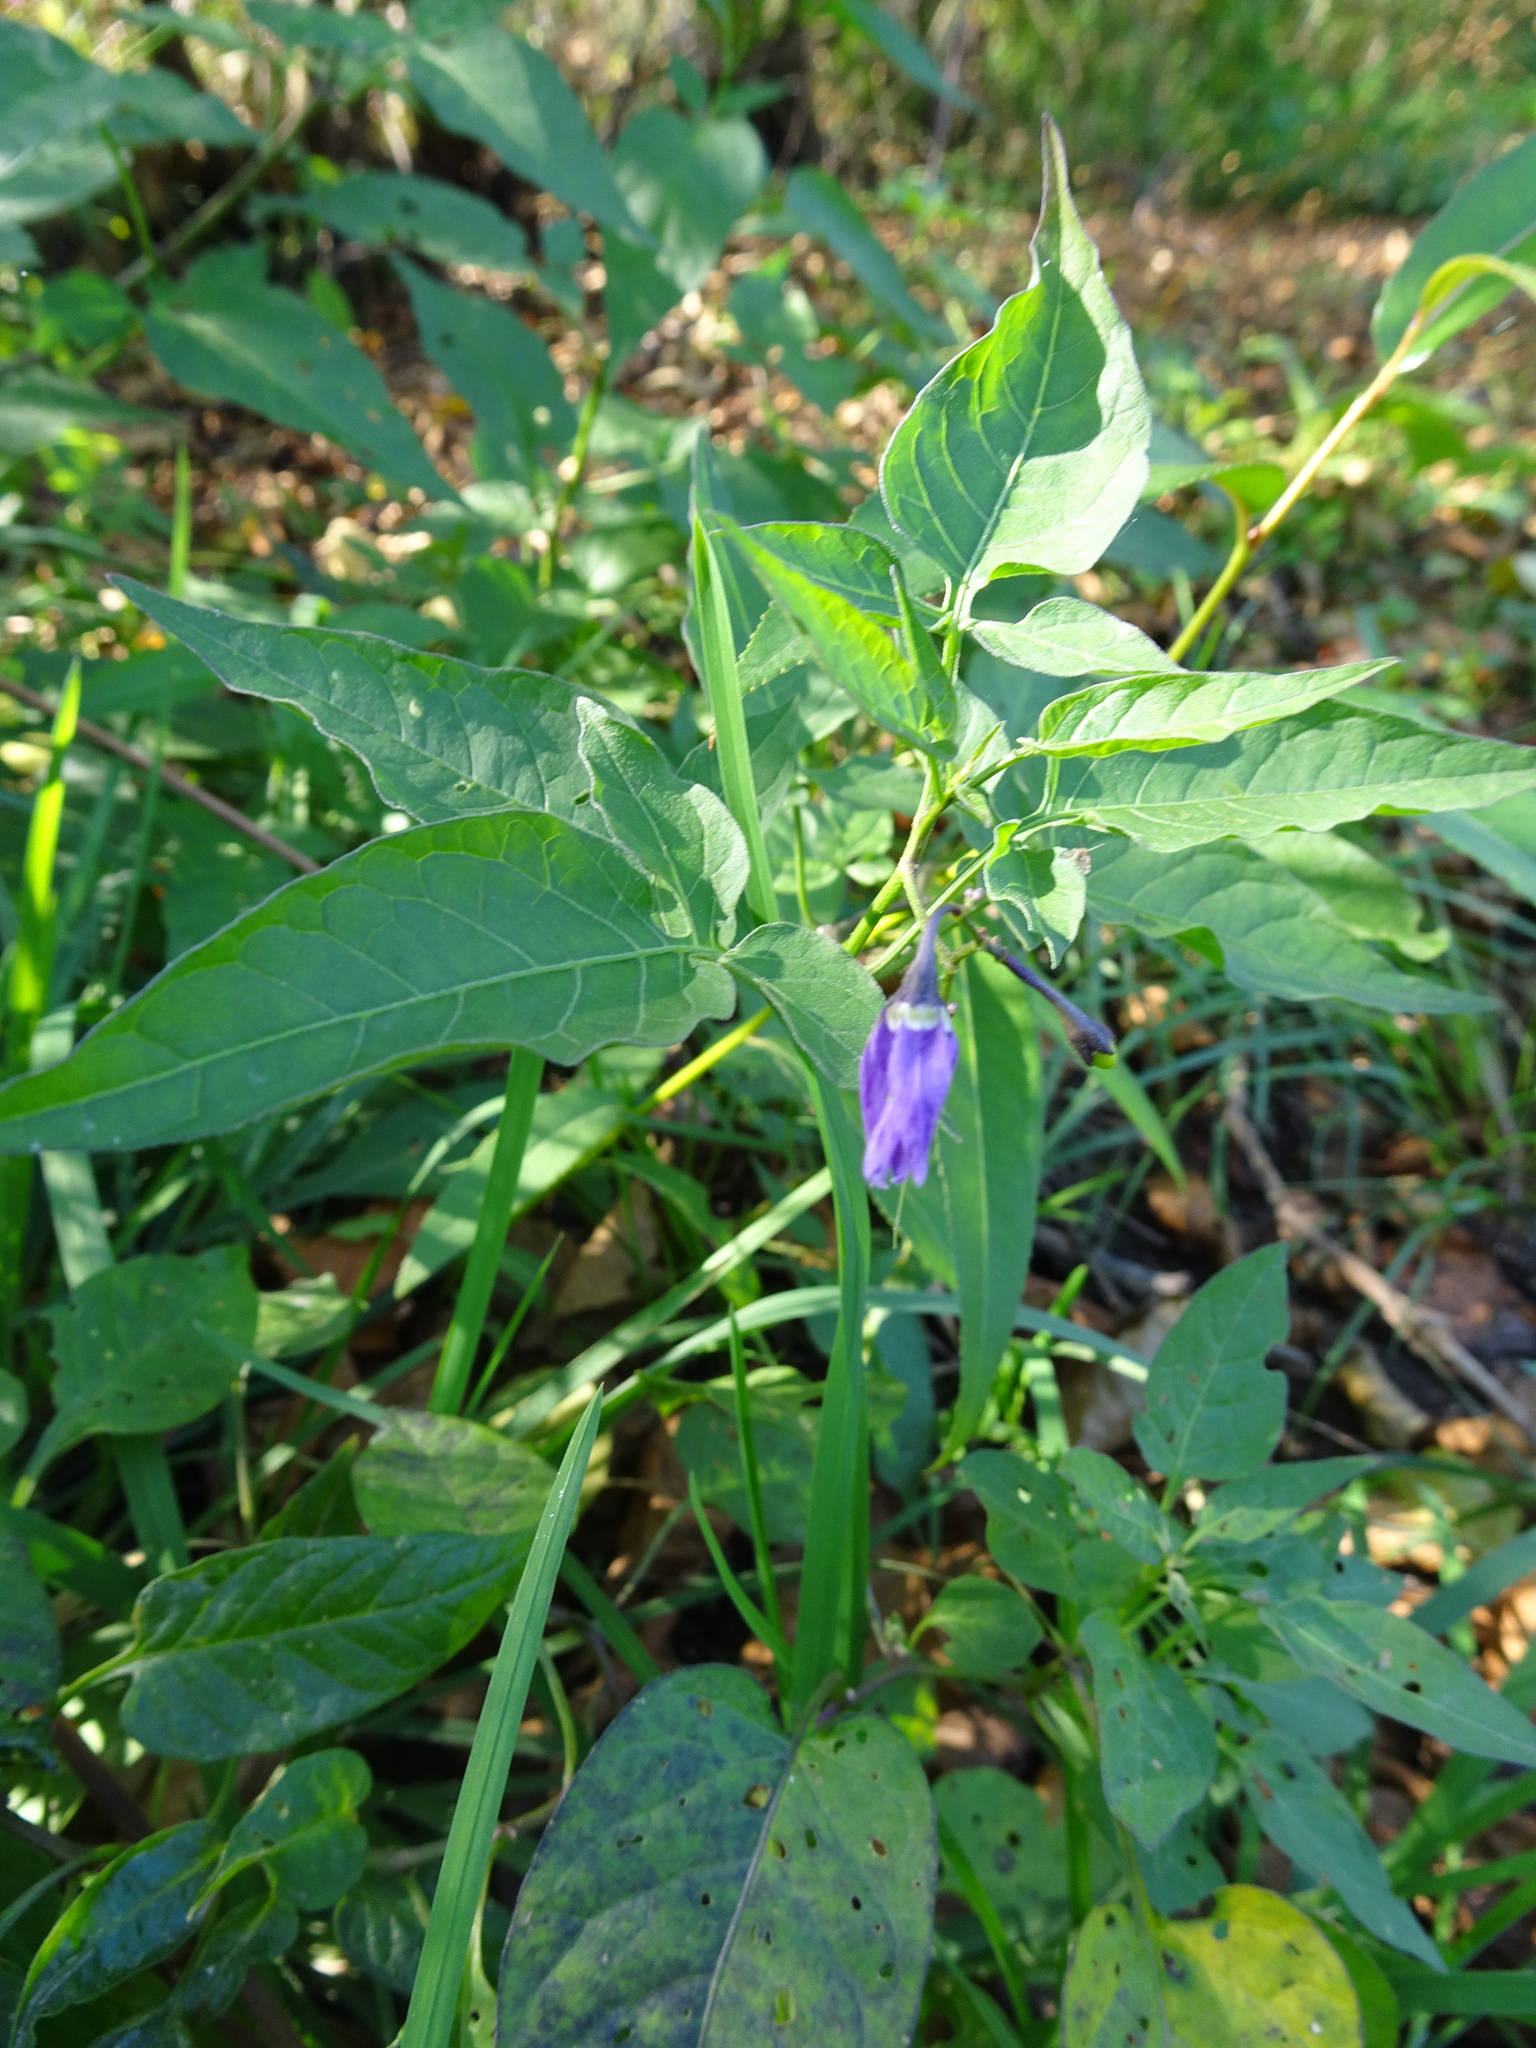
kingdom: Plantae
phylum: Tracheophyta
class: Magnoliopsida
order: Solanales
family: Solanaceae
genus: Solanum
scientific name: Solanum dulcamara
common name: Climbing nightshade
